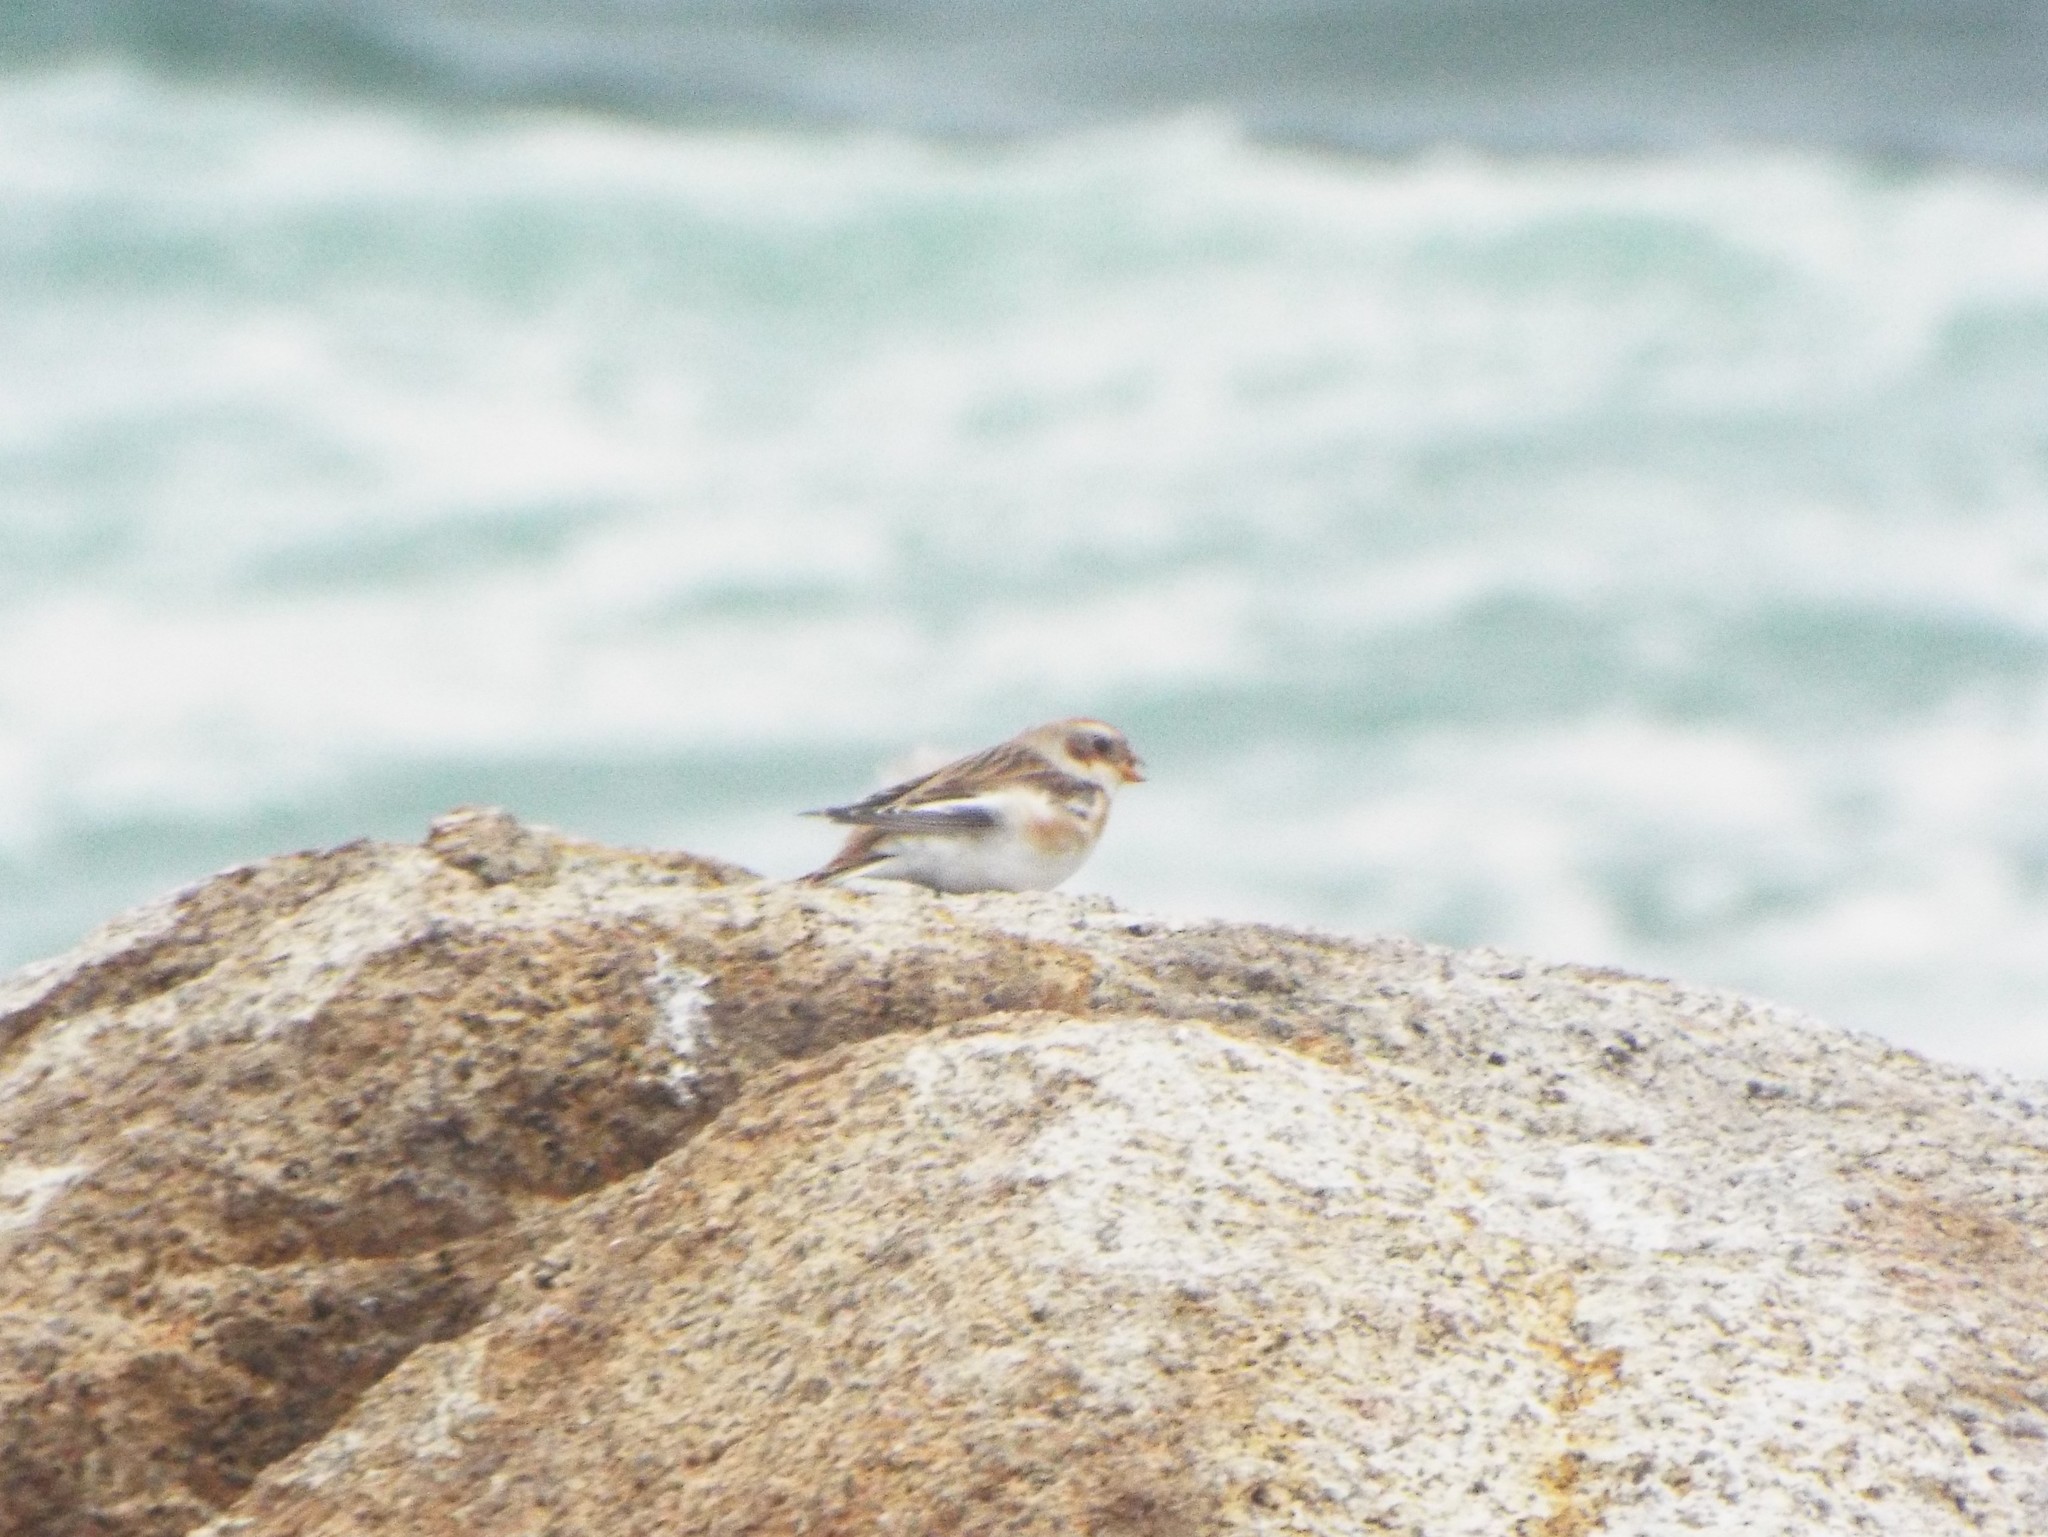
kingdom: Animalia
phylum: Chordata
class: Aves
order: Passeriformes
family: Calcariidae
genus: Plectrophenax
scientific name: Plectrophenax nivalis
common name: Snow bunting
